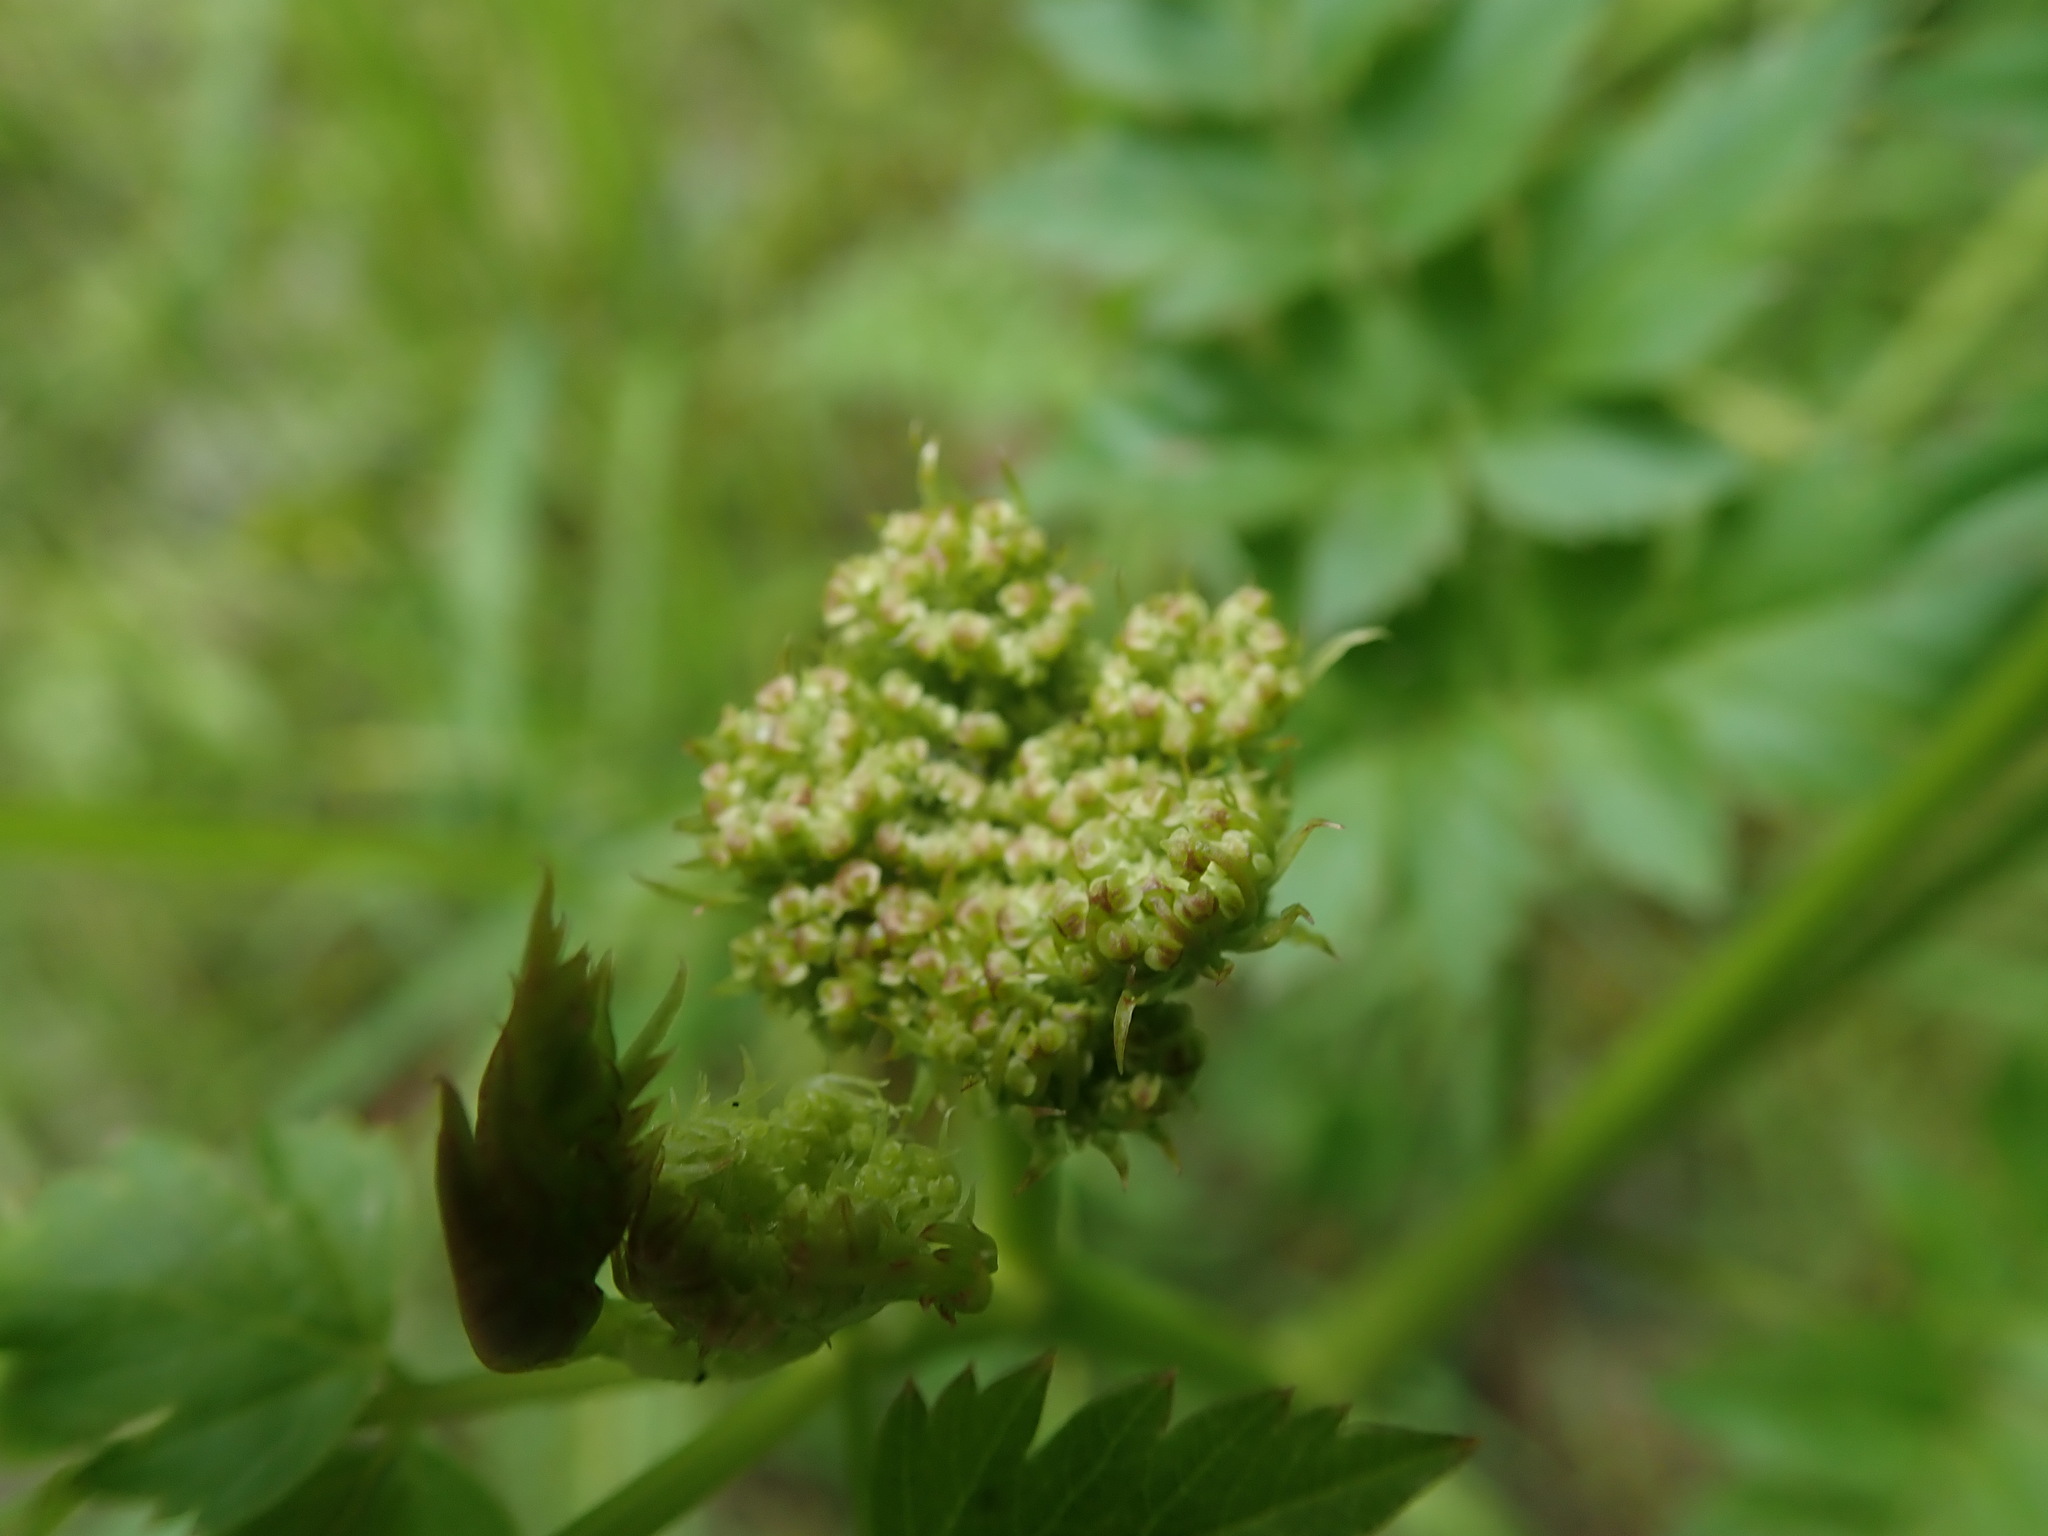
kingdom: Plantae
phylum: Tracheophyta
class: Magnoliopsida
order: Apiales
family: Apiaceae
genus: Oenanthe
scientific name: Oenanthe sarmentosa
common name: American water-parsley
